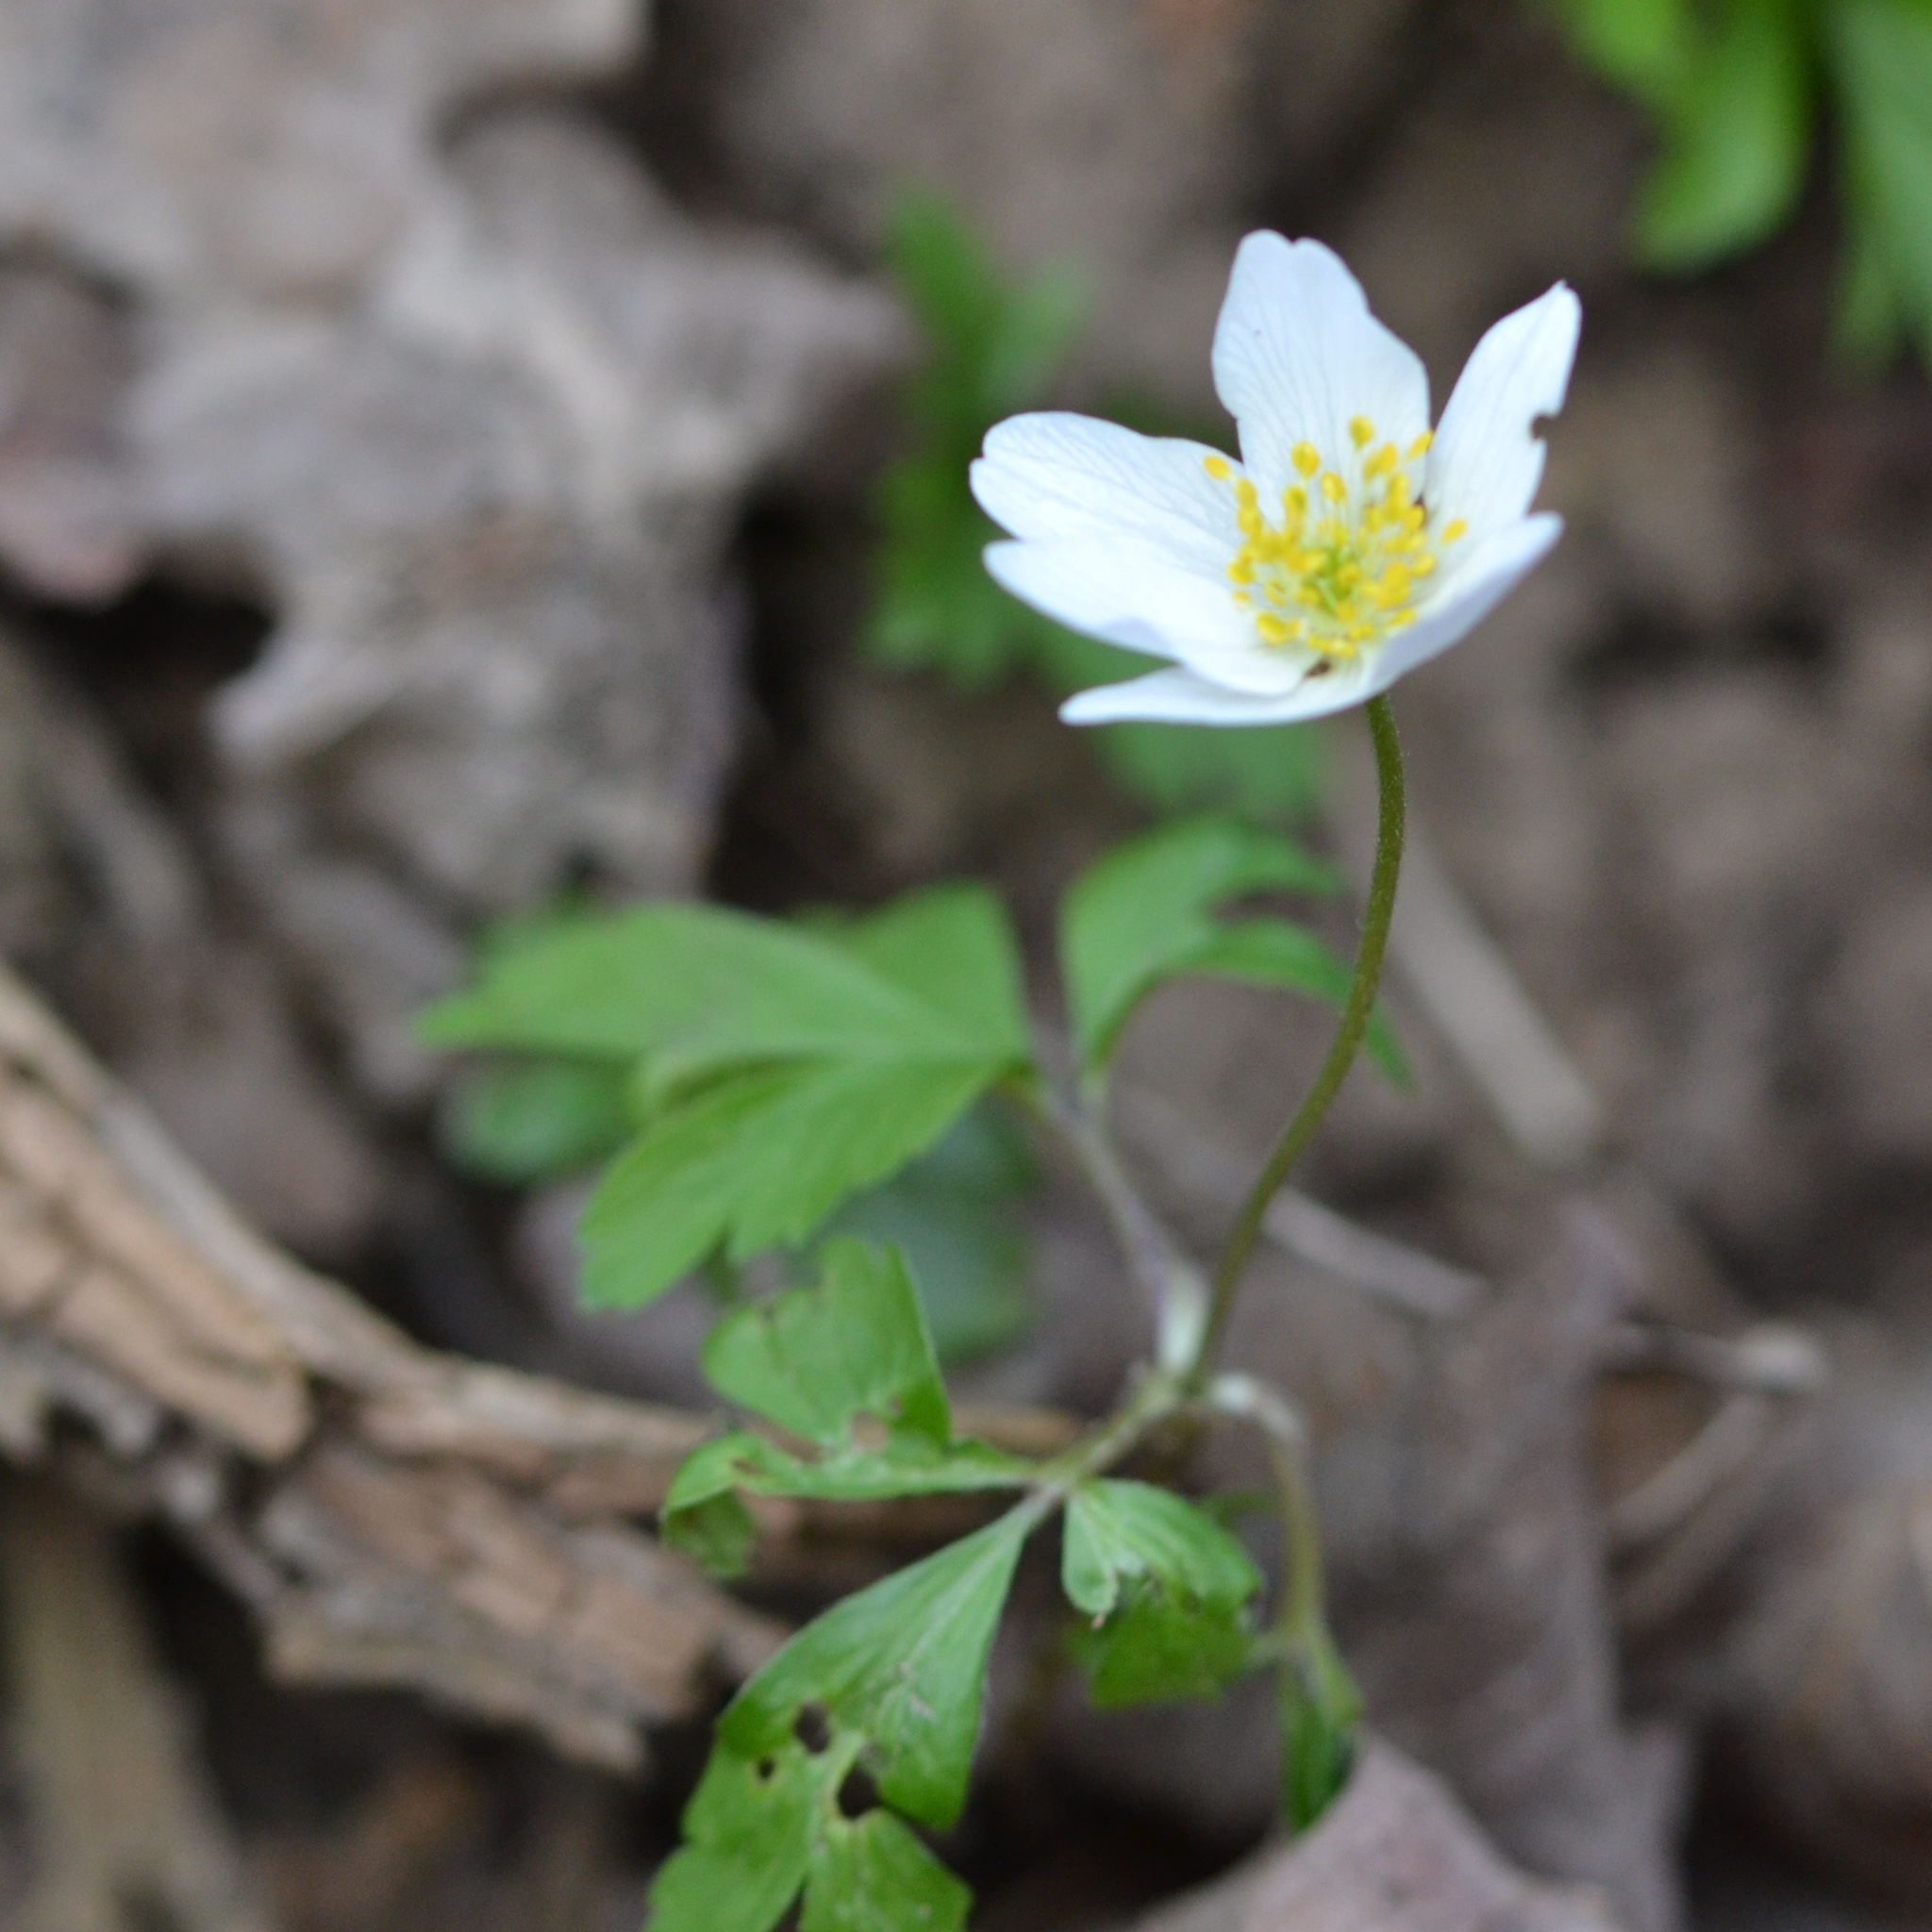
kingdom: Plantae
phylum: Tracheophyta
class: Magnoliopsida
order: Ranunculales
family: Ranunculaceae
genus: Anemone
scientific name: Anemone nemorosa
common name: Wood anemone
